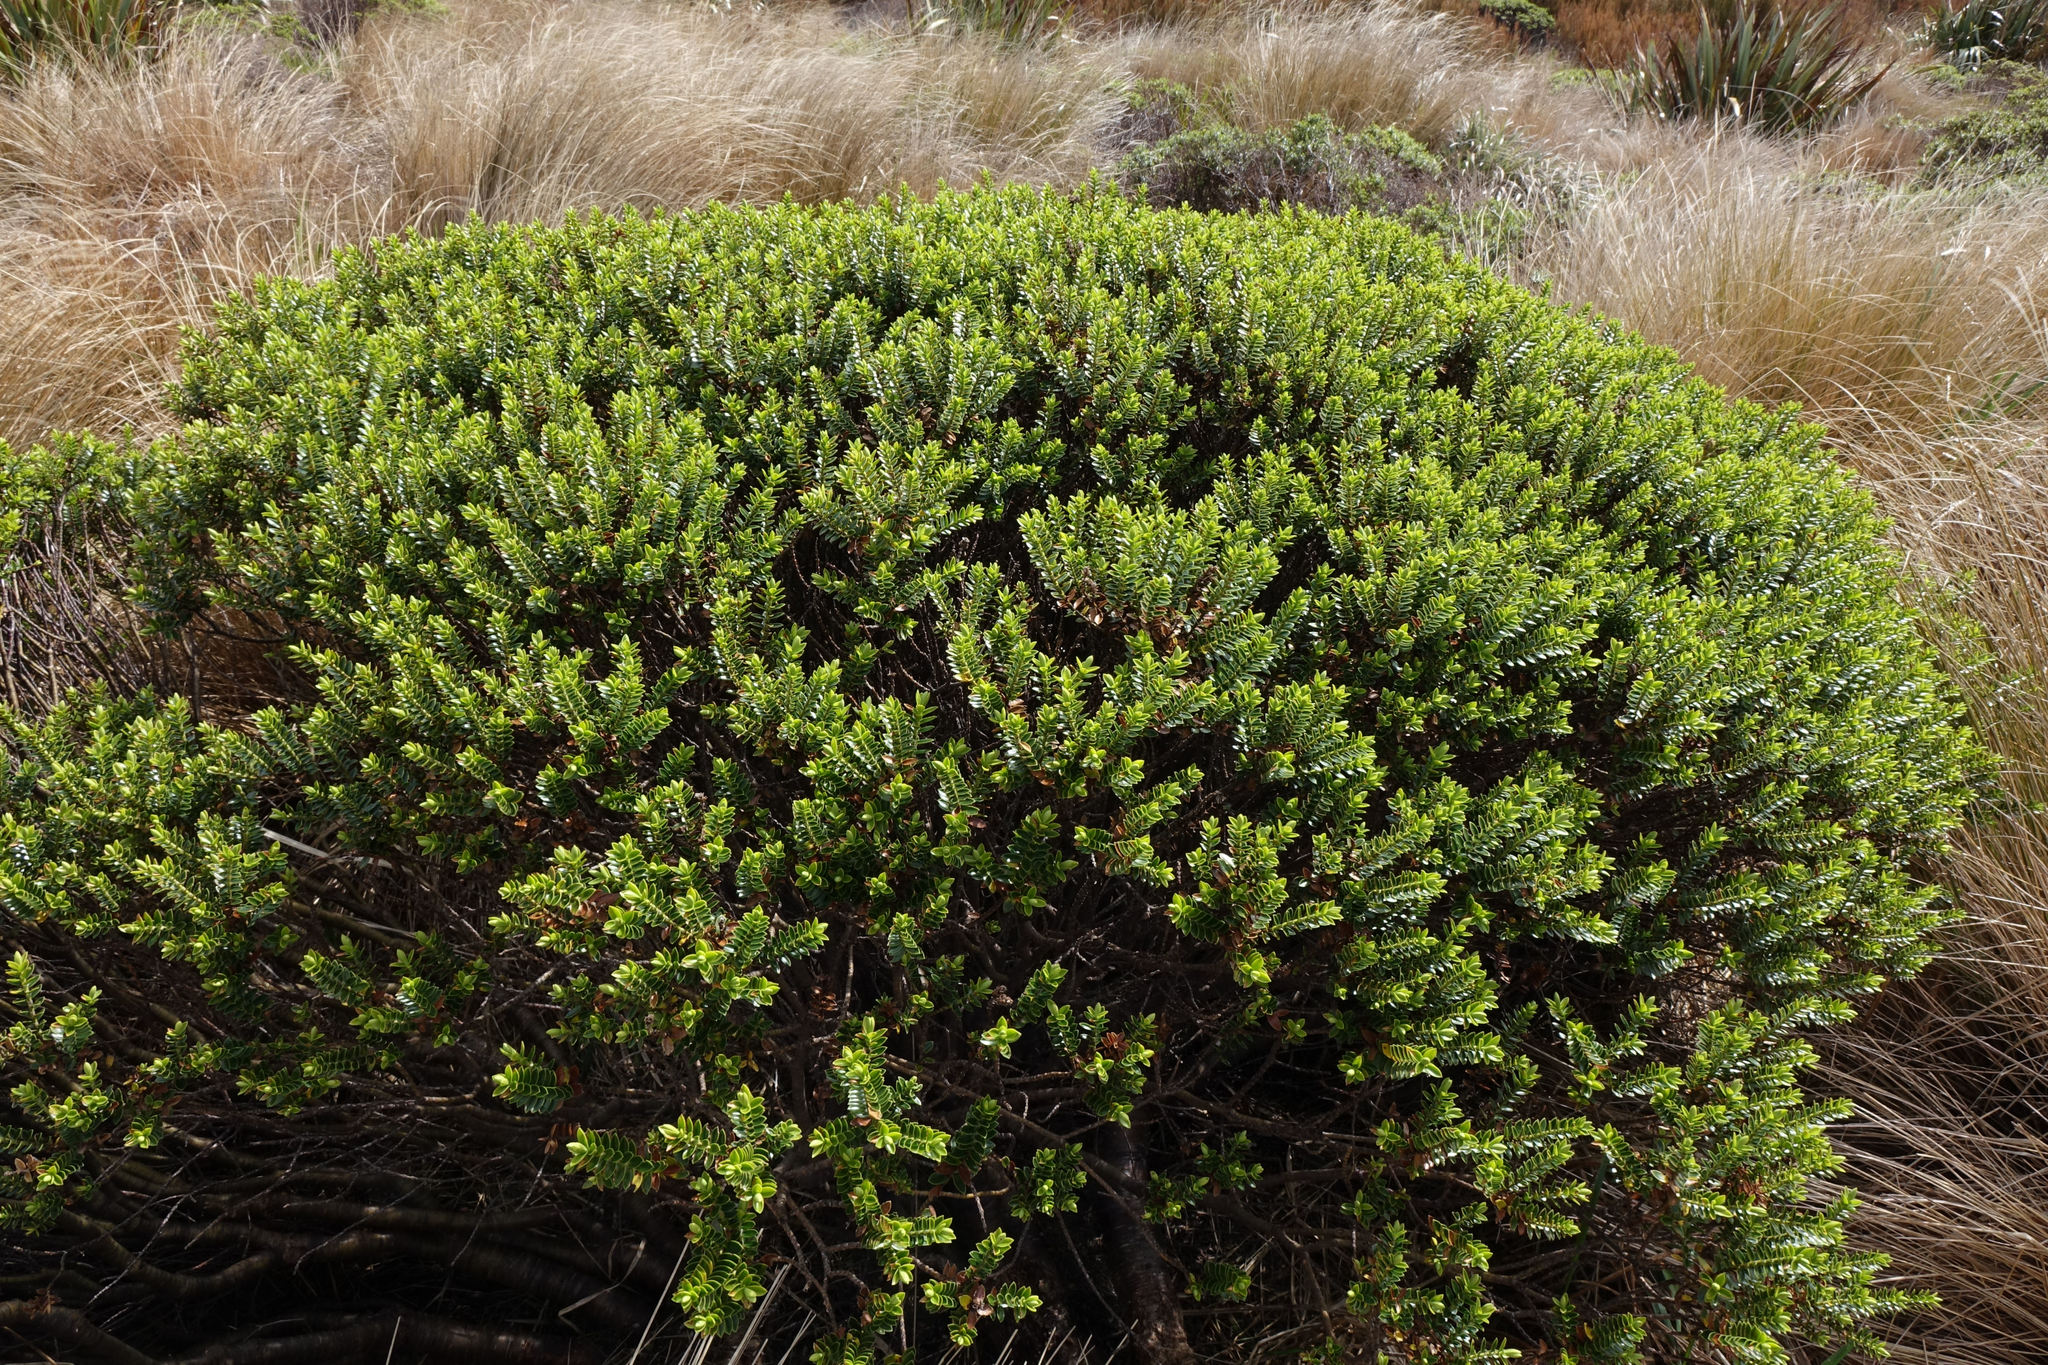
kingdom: Plantae
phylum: Tracheophyta
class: Magnoliopsida
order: Lamiales
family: Plantaginaceae
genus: Veronica
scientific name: Veronica odora
